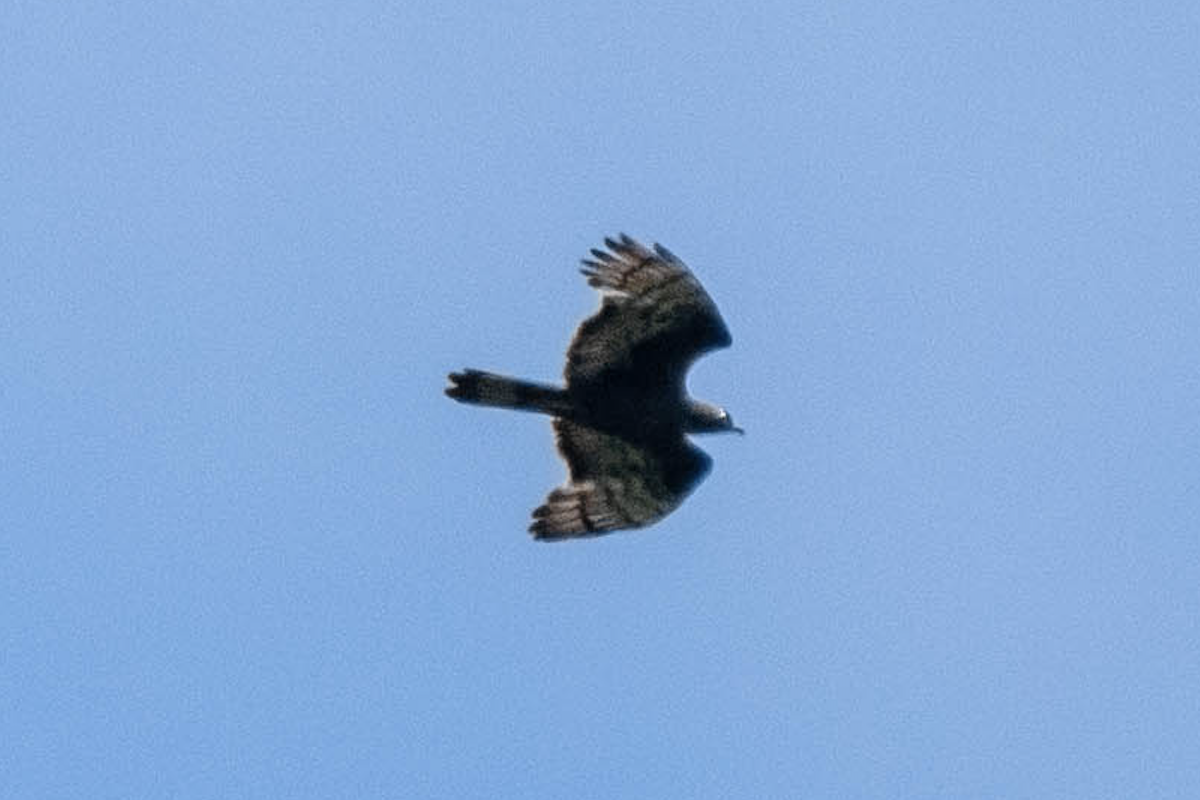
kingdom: Animalia
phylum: Chordata
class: Aves
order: Accipitriformes
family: Accipitridae
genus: Pernis
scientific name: Pernis ptilorhynchus
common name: Crested honey buzzard
